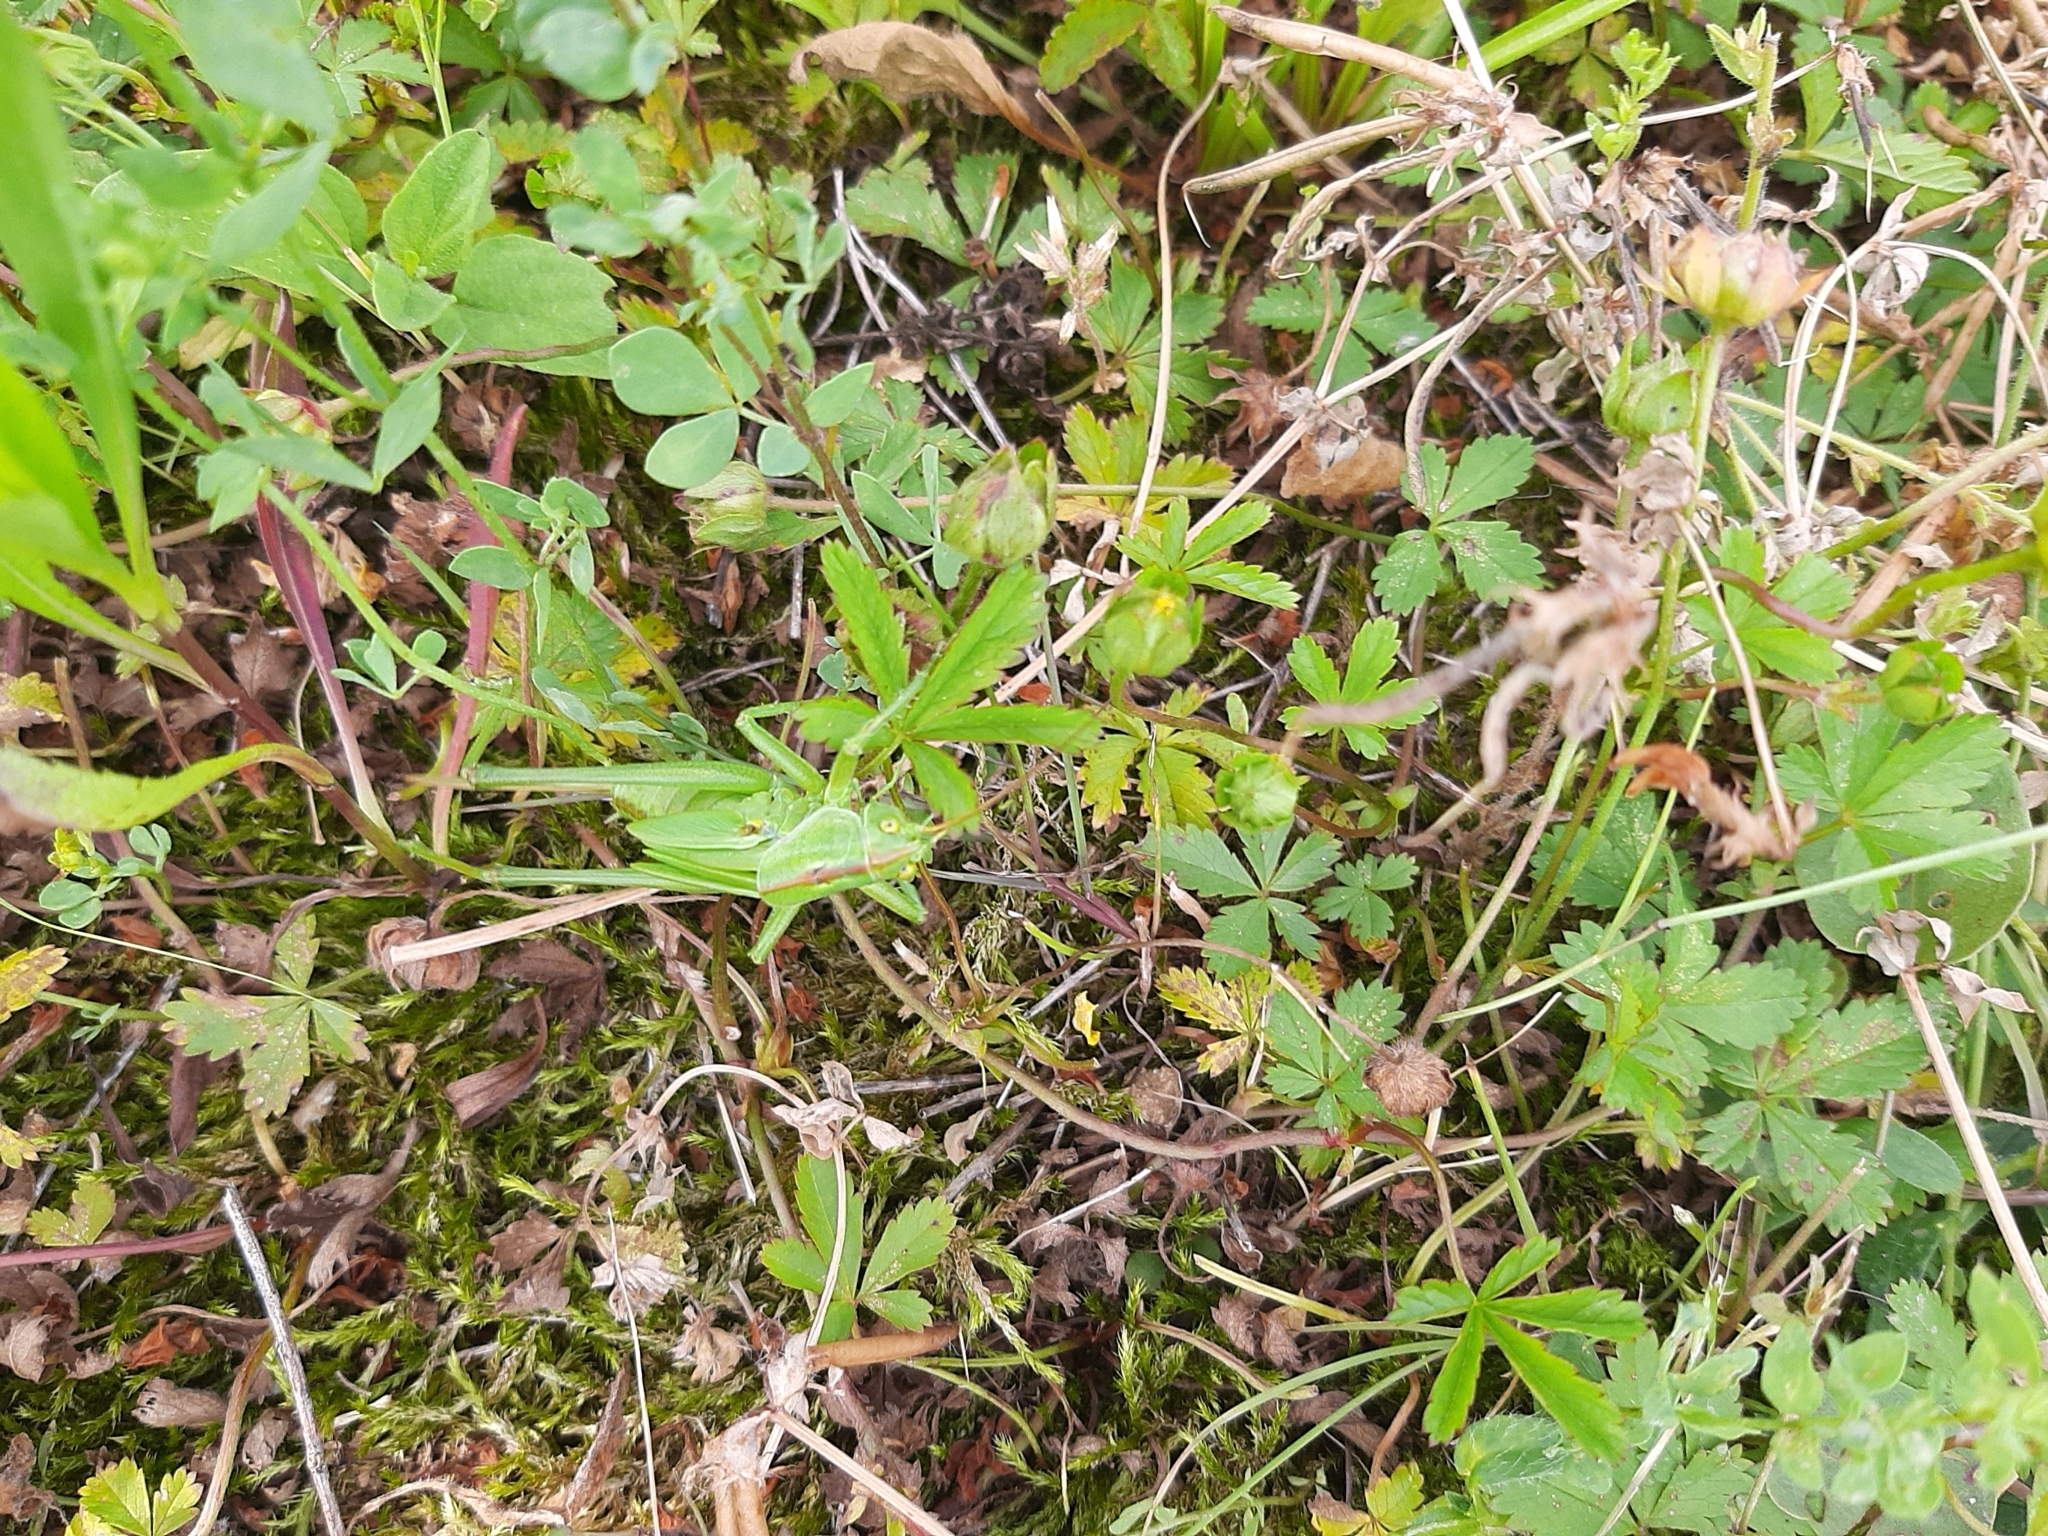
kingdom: Animalia
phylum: Arthropoda
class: Insecta
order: Orthoptera
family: Tettigoniidae
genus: Tettigonia
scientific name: Tettigonia viridissima
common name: Great green bush-cricket
